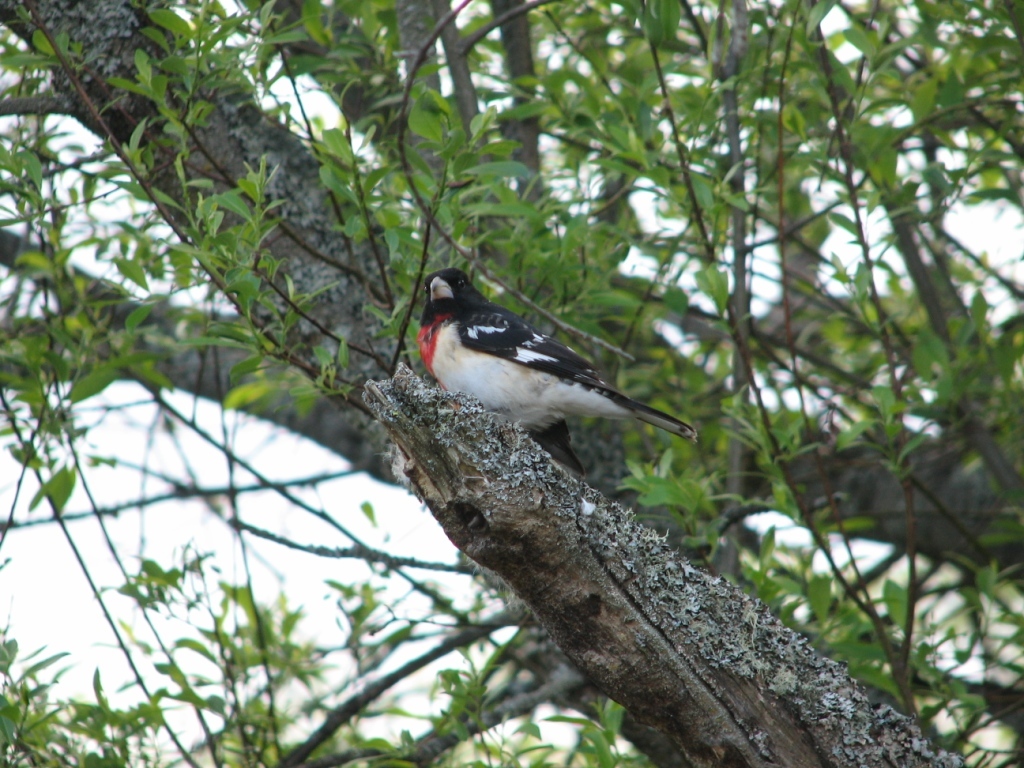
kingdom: Animalia
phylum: Chordata
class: Aves
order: Passeriformes
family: Cardinalidae
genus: Pheucticus
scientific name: Pheucticus ludovicianus
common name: Rose-breasted grosbeak
